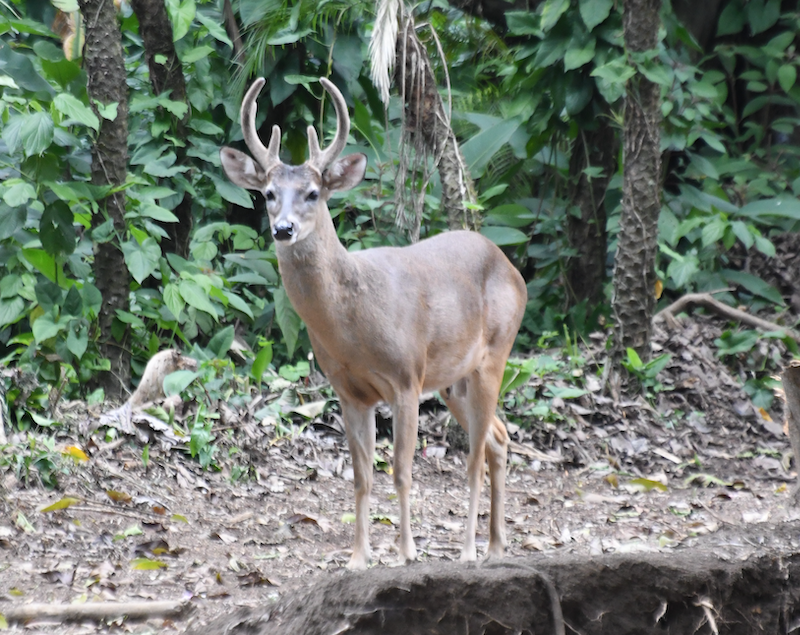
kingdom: Animalia
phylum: Chordata
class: Mammalia
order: Artiodactyla
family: Cervidae
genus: Odocoileus
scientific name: Odocoileus virginianus
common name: White-tailed deer
